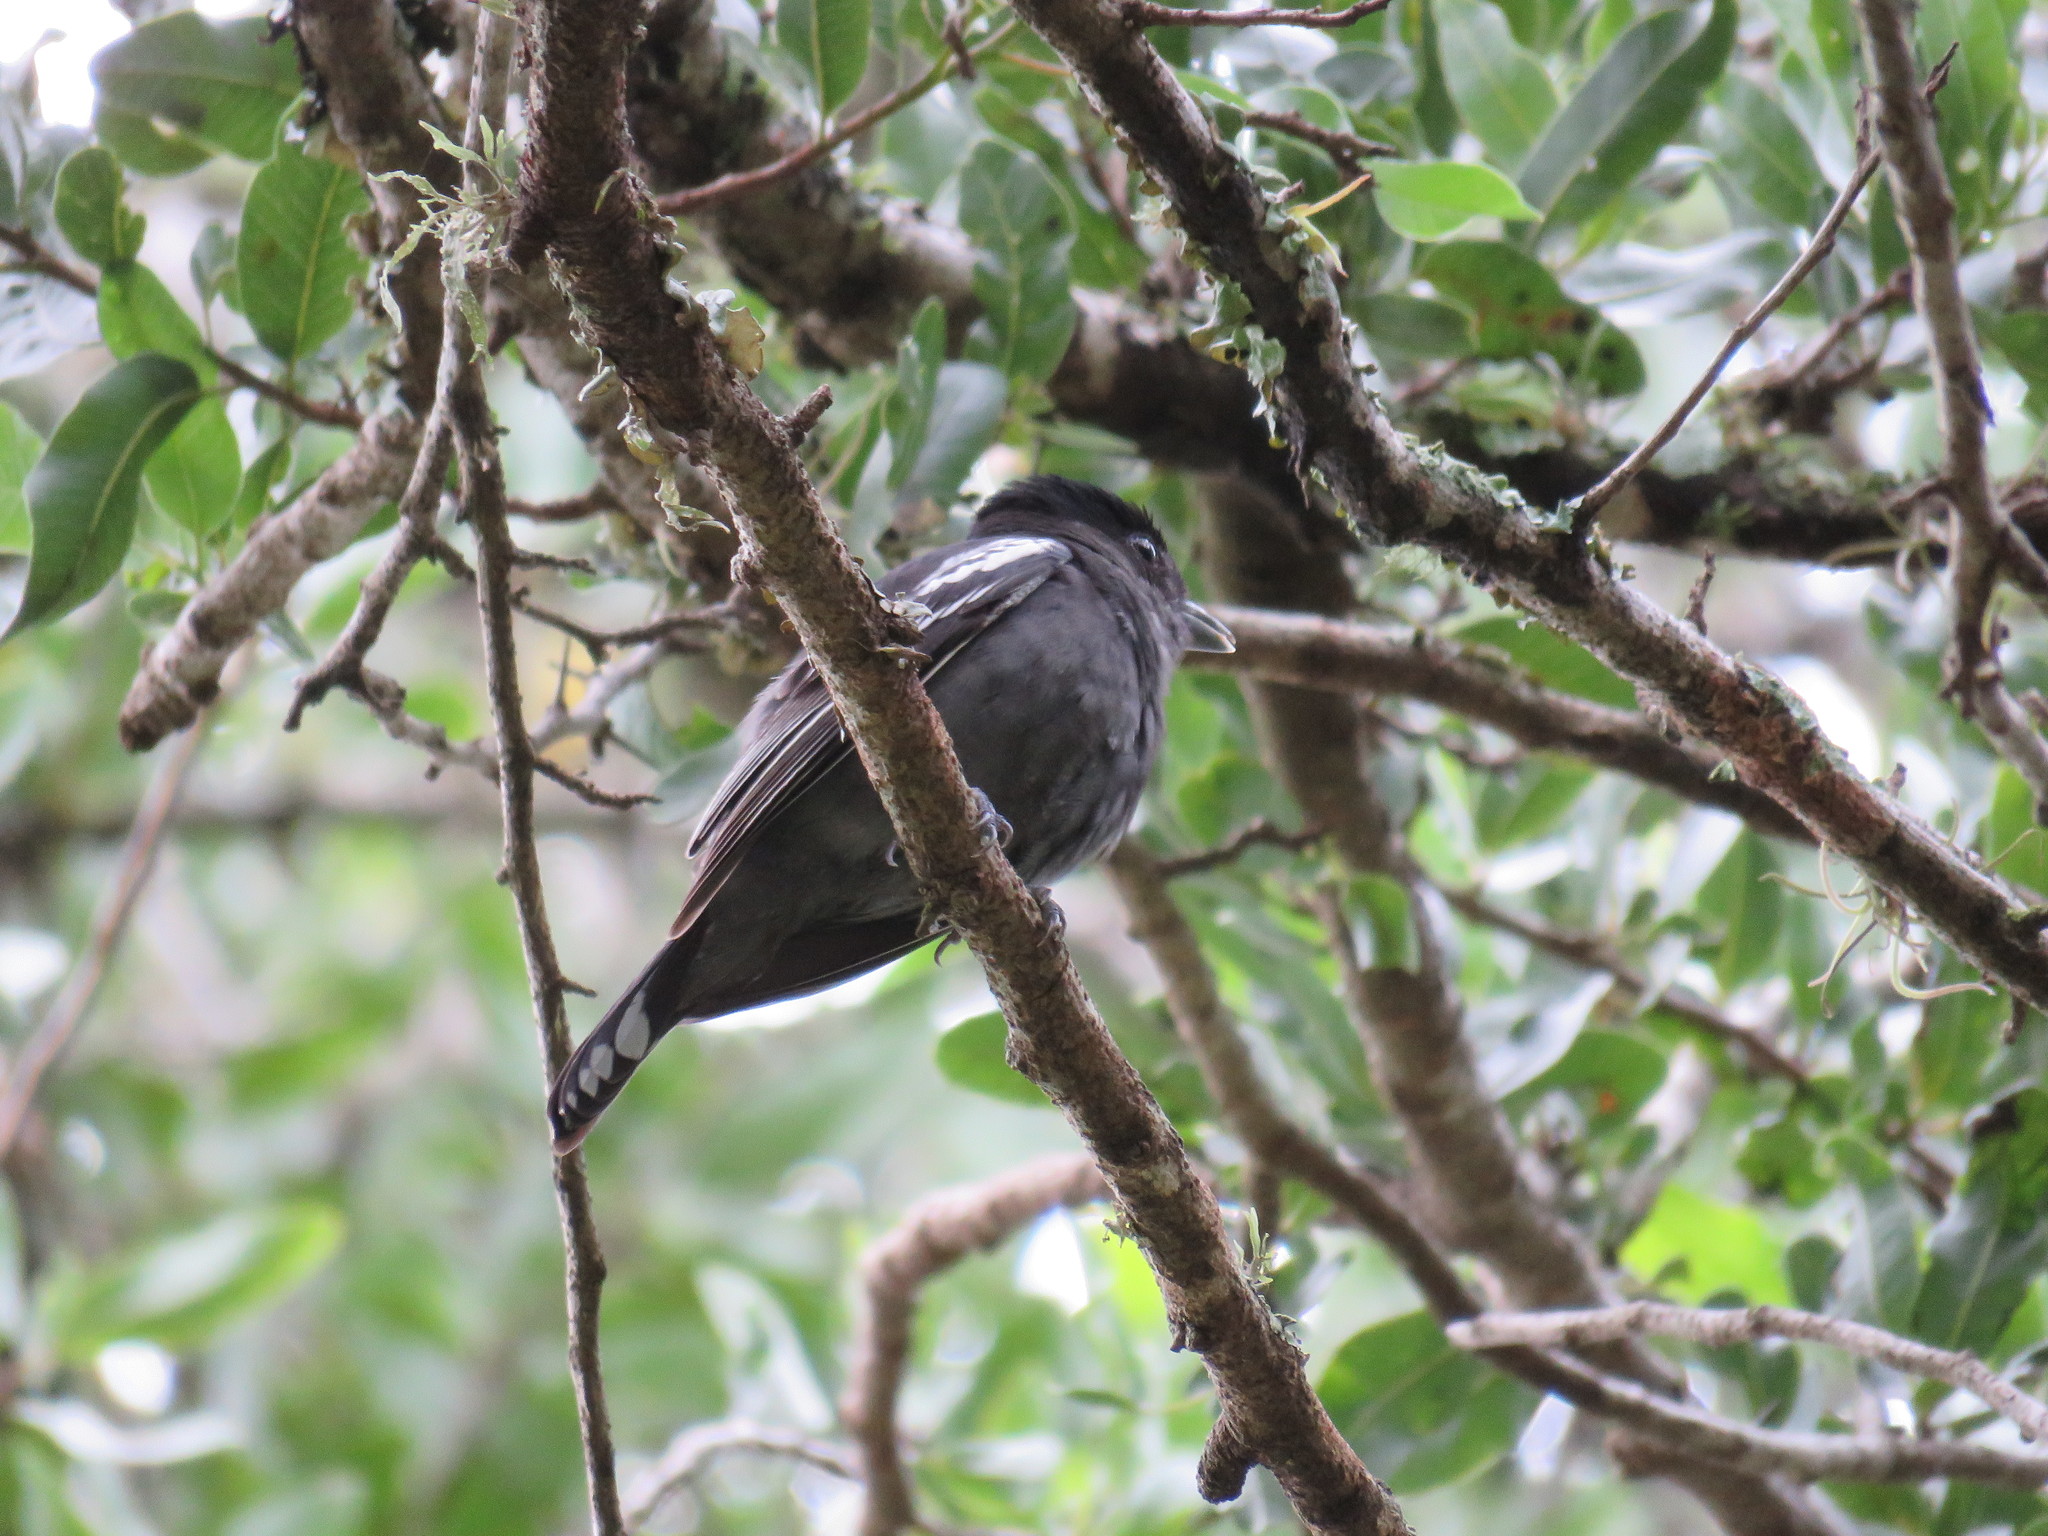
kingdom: Animalia
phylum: Chordata
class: Aves
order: Passeriformes
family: Cotingidae
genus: Pachyramphus
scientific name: Pachyramphus polychopterus
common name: White-winged becard
